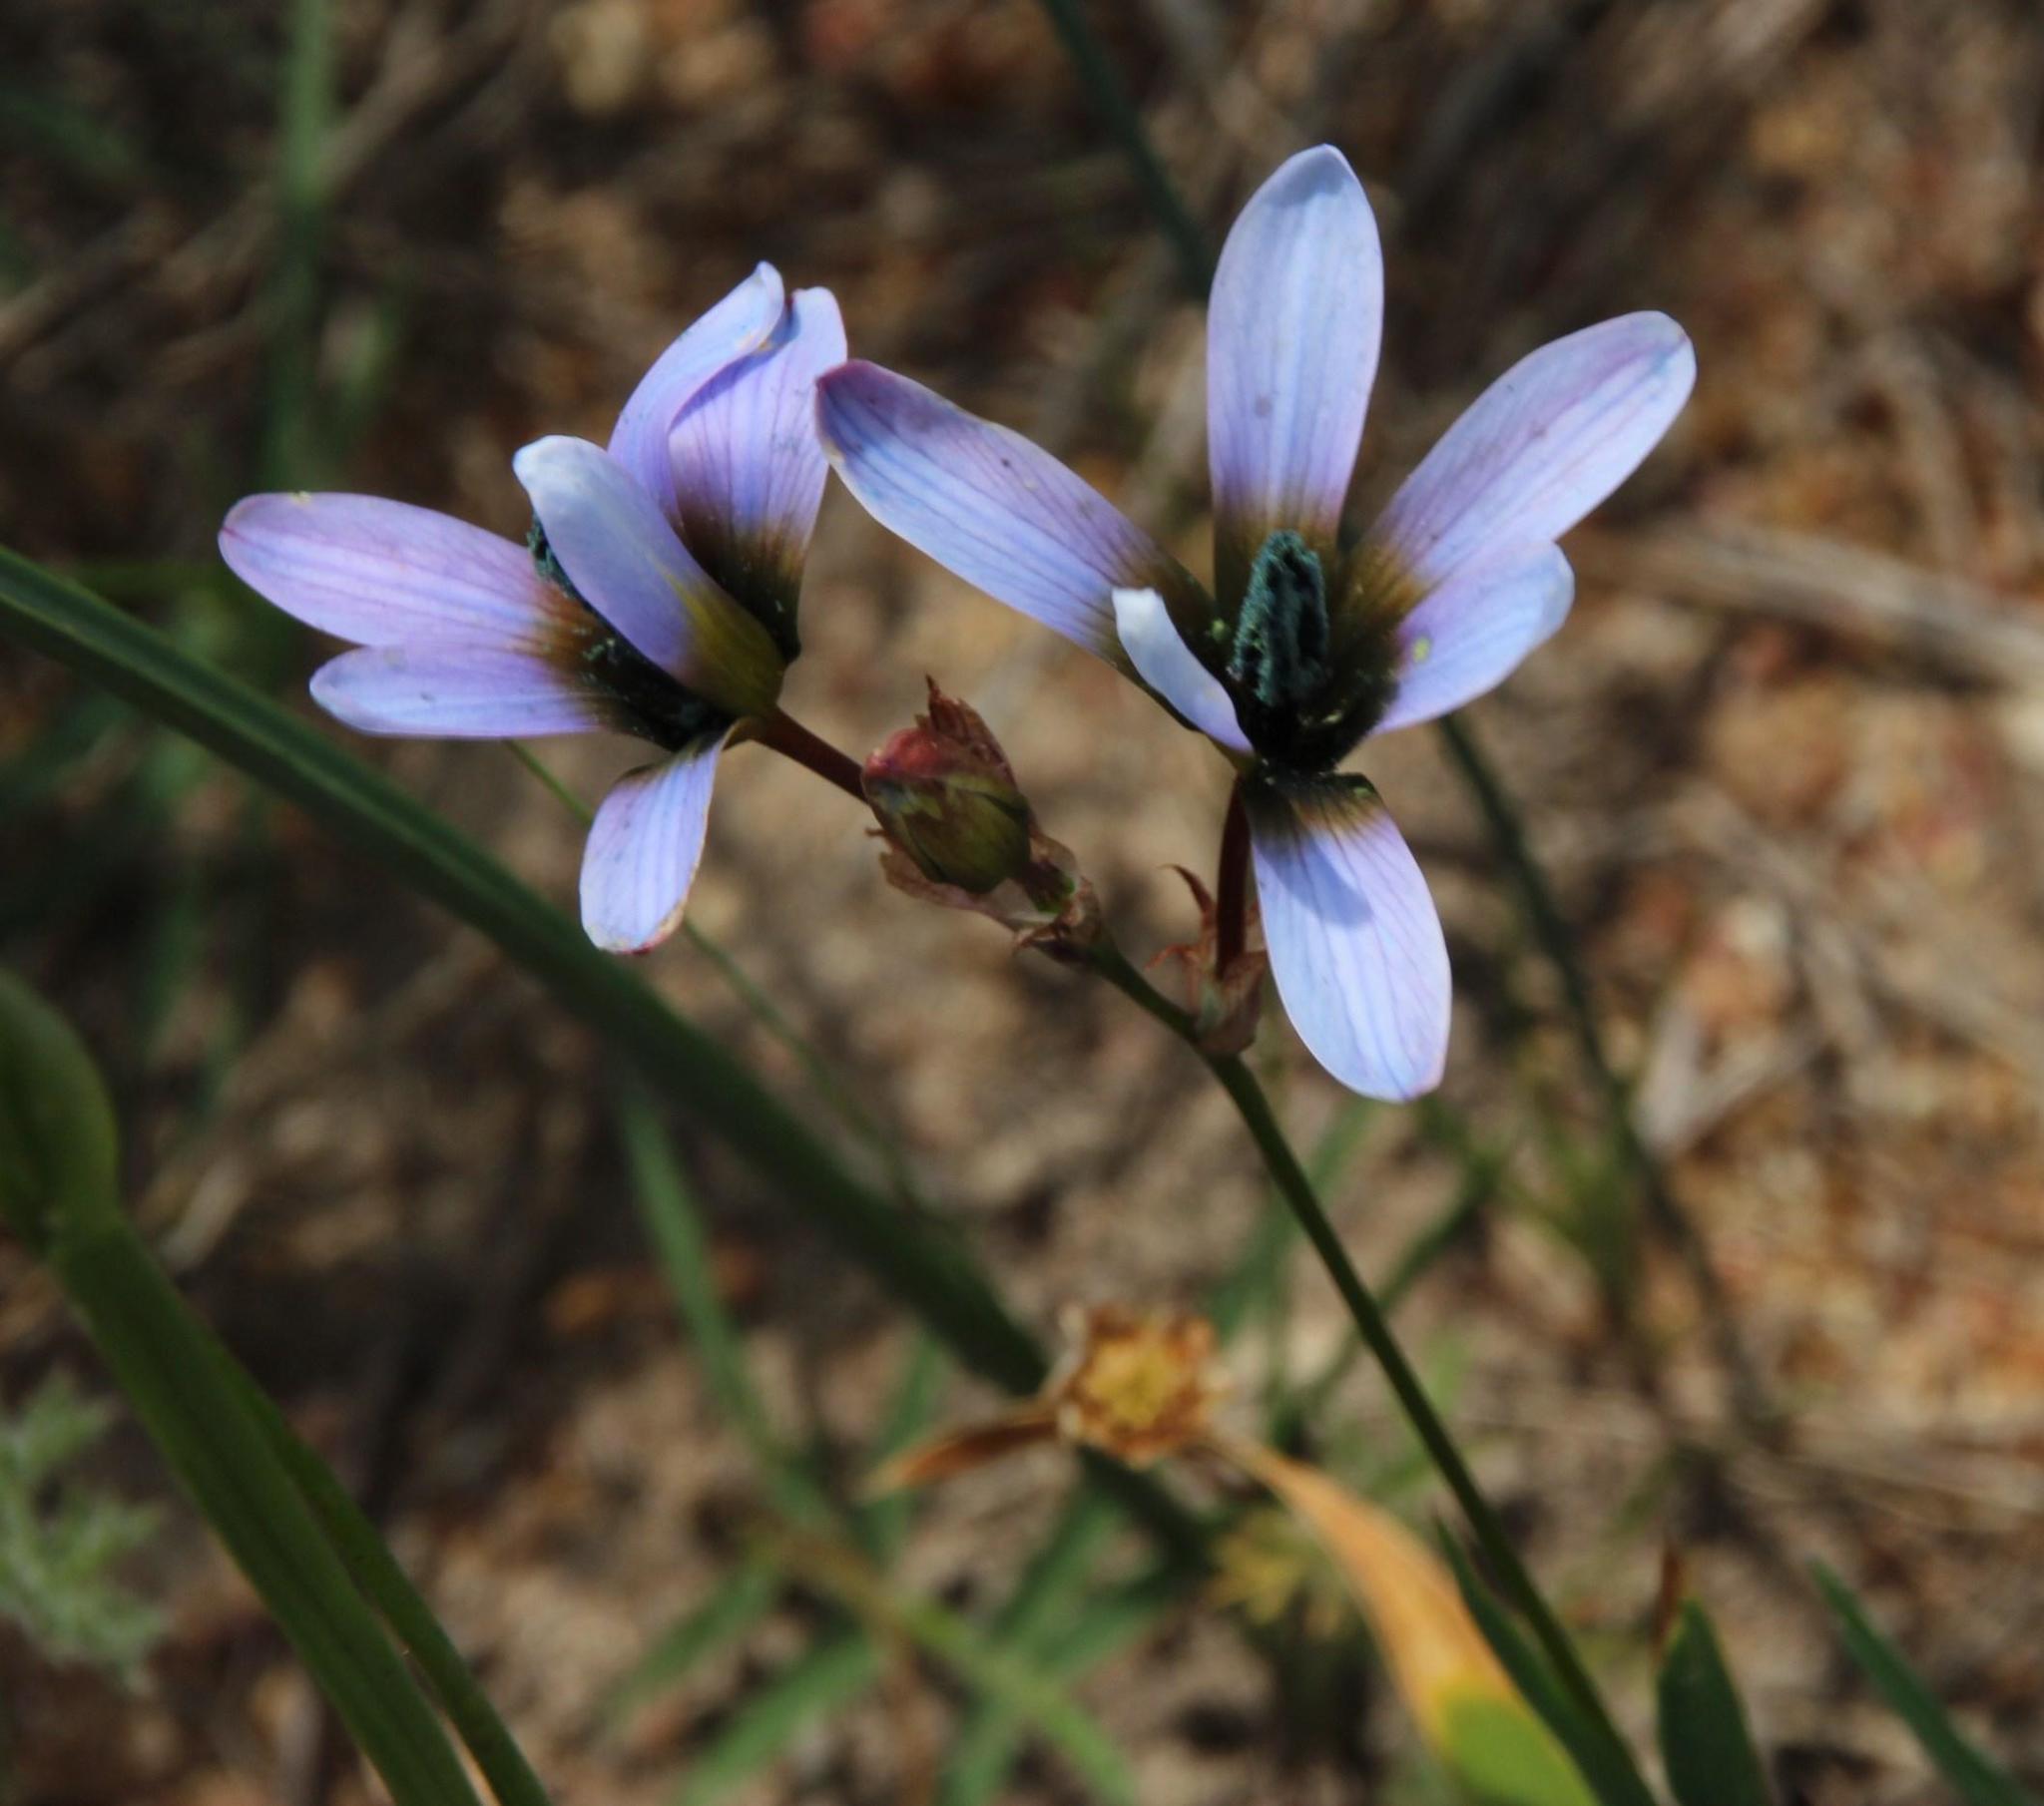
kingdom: Plantae
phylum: Tracheophyta
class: Liliopsida
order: Asparagales
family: Iridaceae
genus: Ixia
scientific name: Ixia monadelpha
